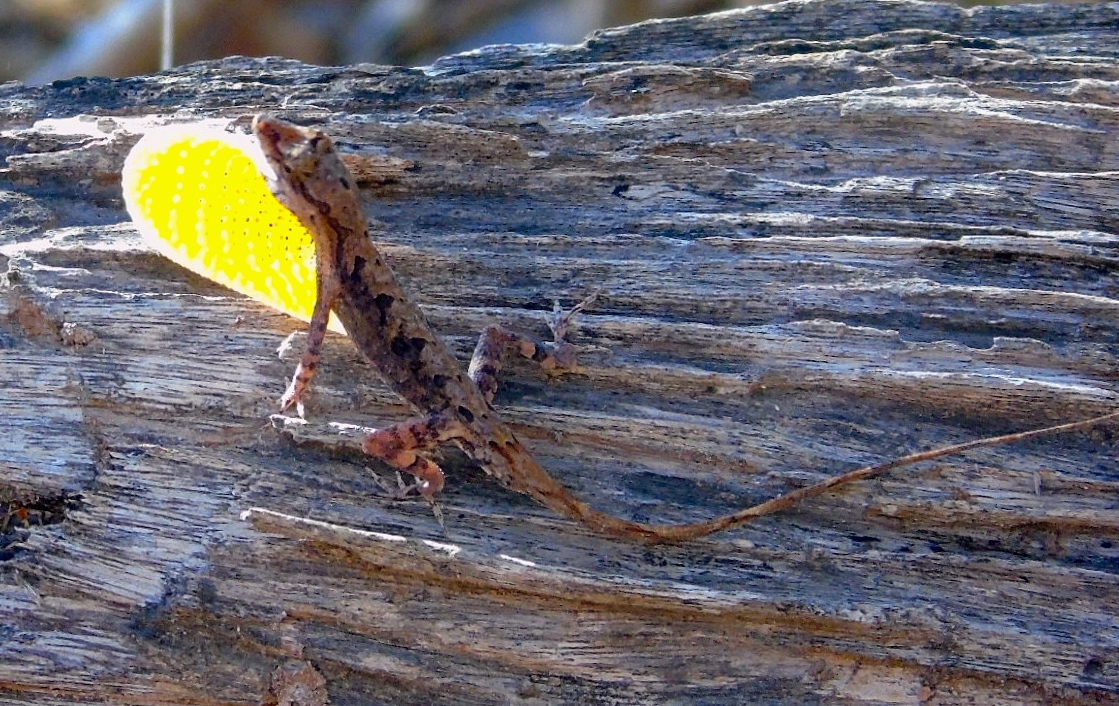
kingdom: Animalia
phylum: Chordata
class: Squamata
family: Dactyloidae
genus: Anolis
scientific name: Anolis nebulosus
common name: Clouded anole
